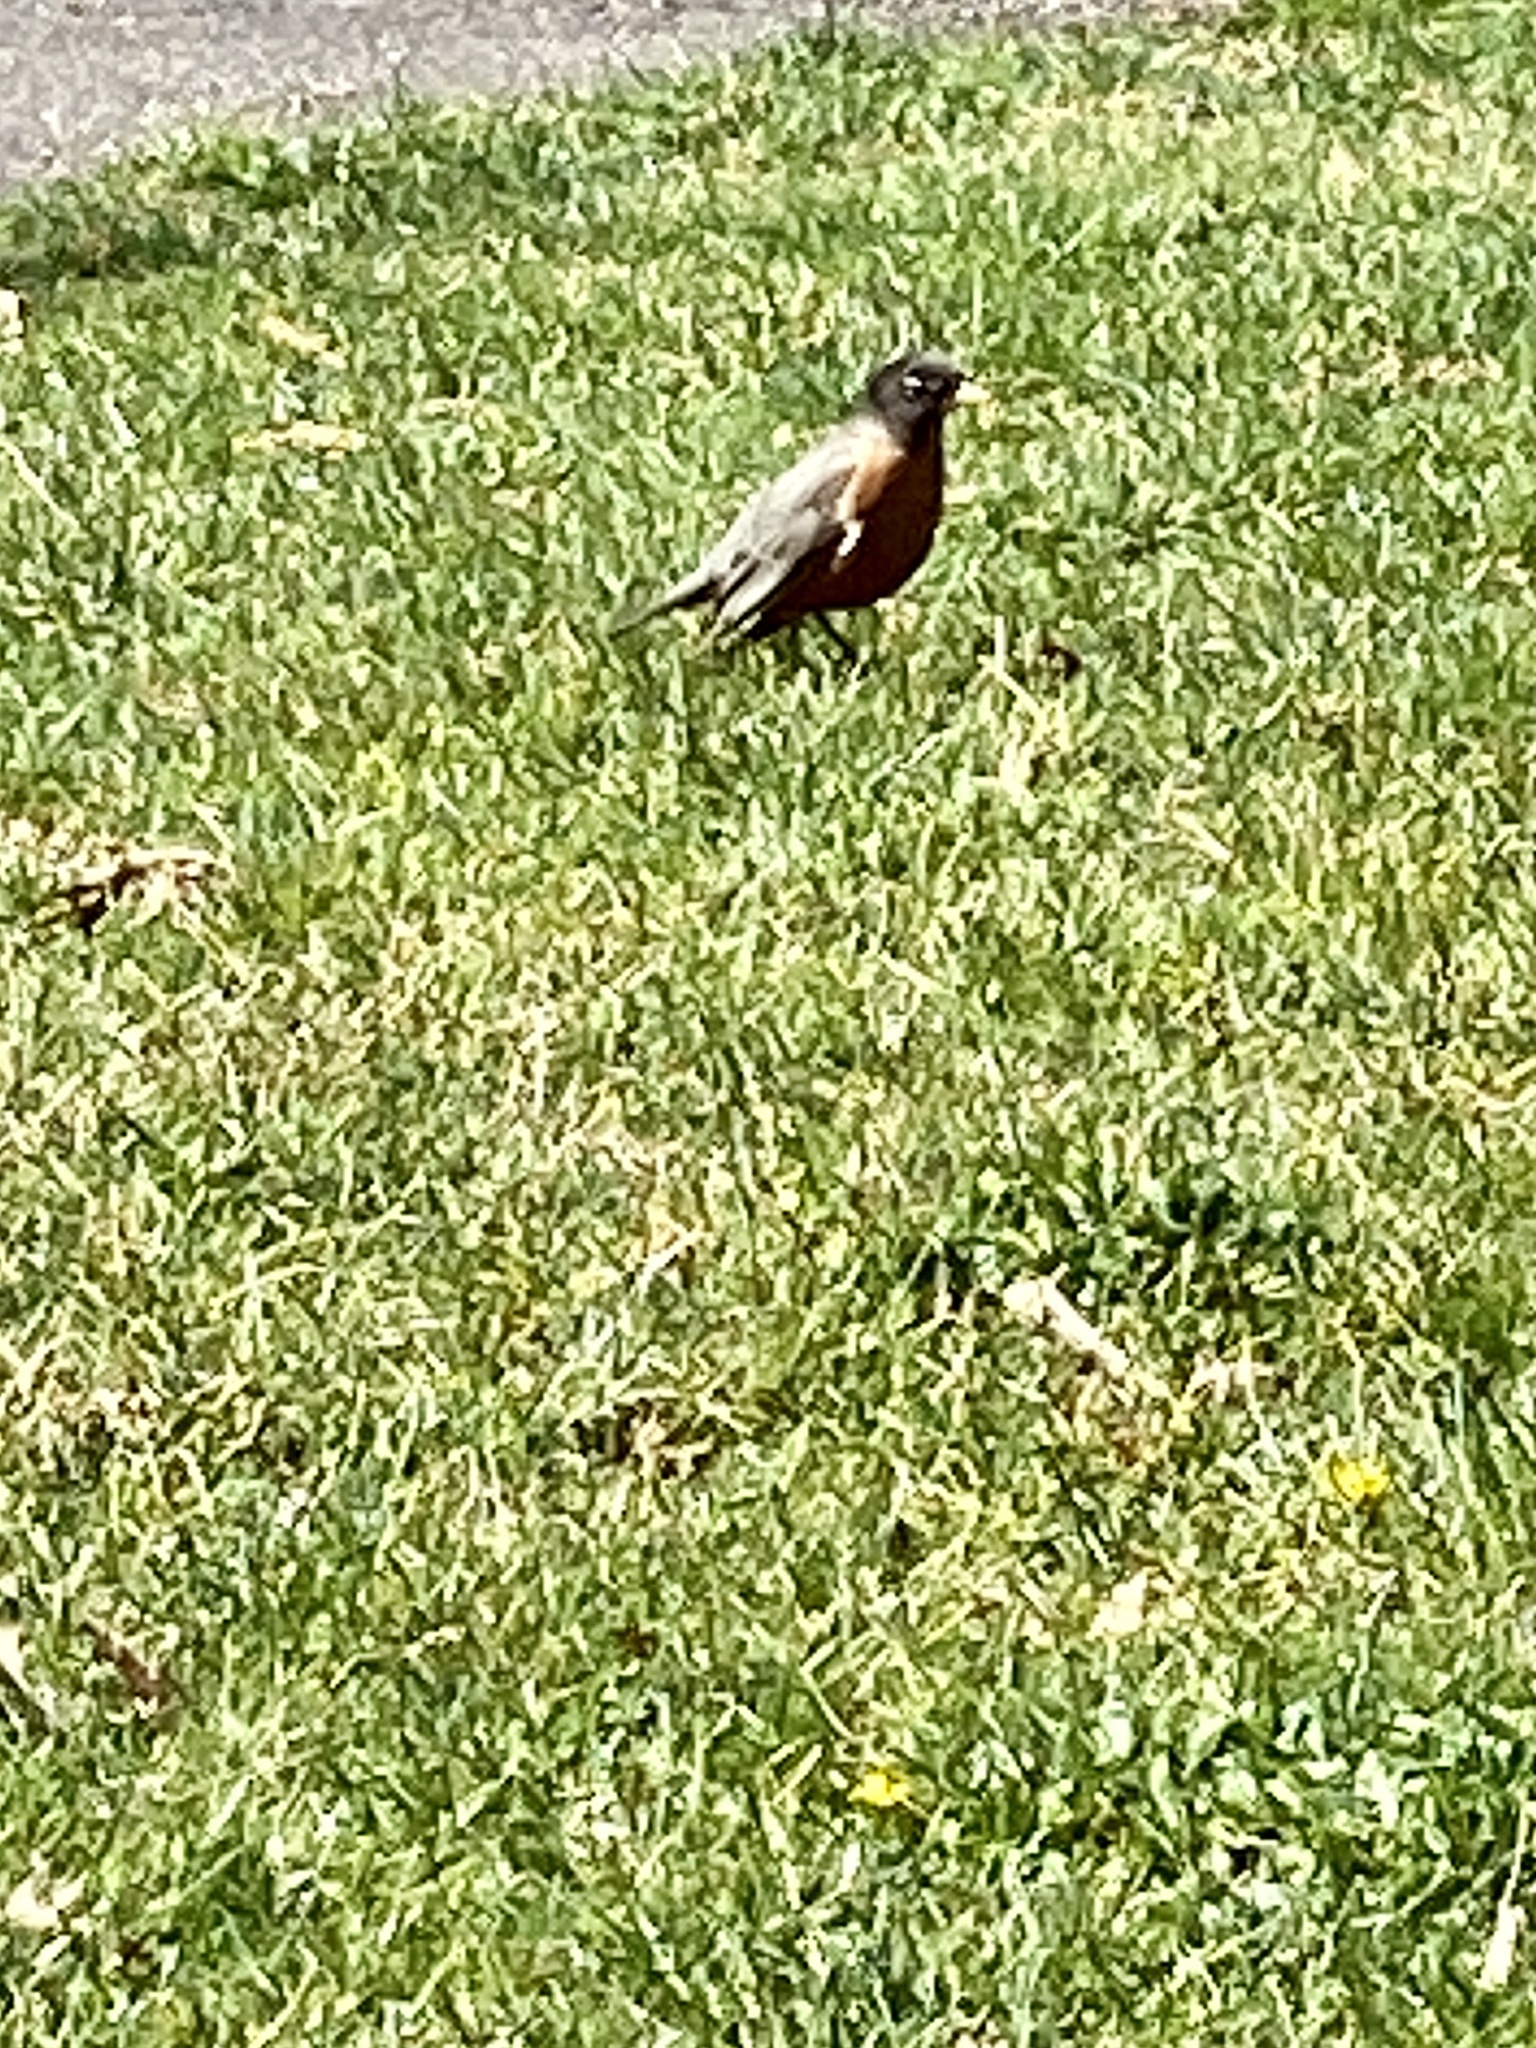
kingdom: Animalia
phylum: Chordata
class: Aves
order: Passeriformes
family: Turdidae
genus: Turdus
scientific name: Turdus migratorius
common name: American robin
